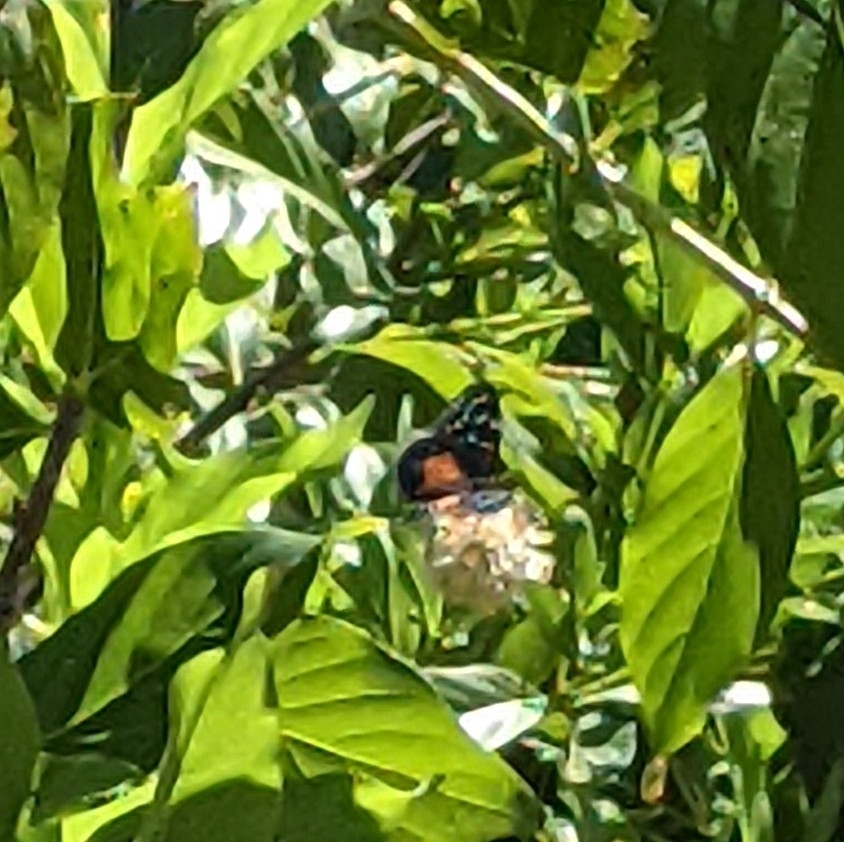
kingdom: Animalia
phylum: Arthropoda
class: Insecta
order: Lepidoptera
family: Nymphalidae
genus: Chlosyne
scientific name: Chlosyne janais
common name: Crimson patch
